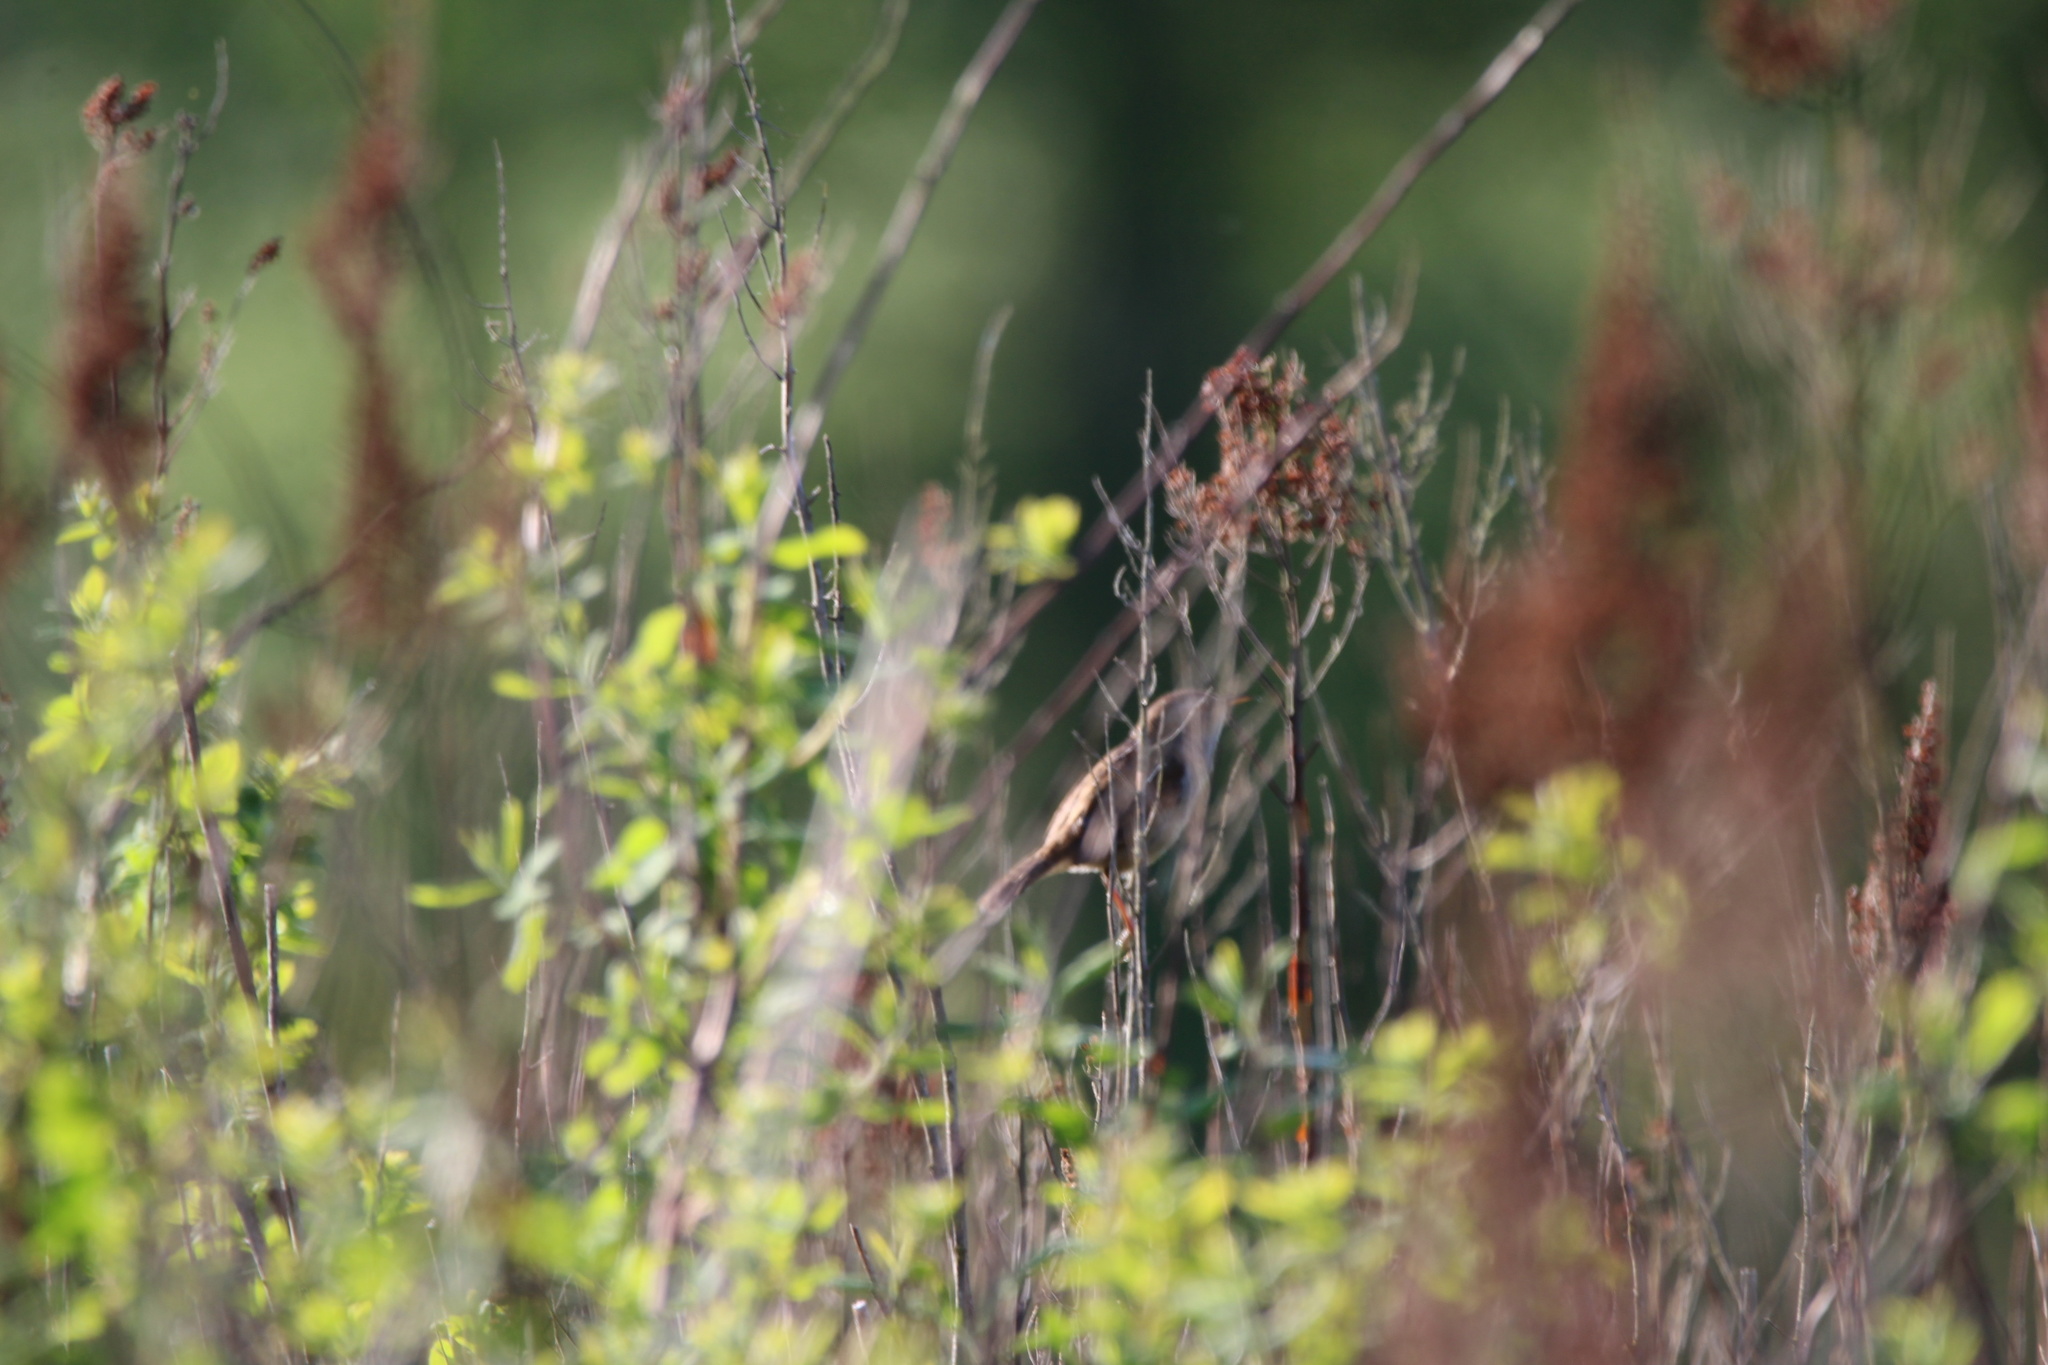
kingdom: Animalia
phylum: Chordata
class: Aves
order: Passeriformes
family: Troglodytidae
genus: Cistothorus
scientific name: Cistothorus palustris
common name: Marsh wren
